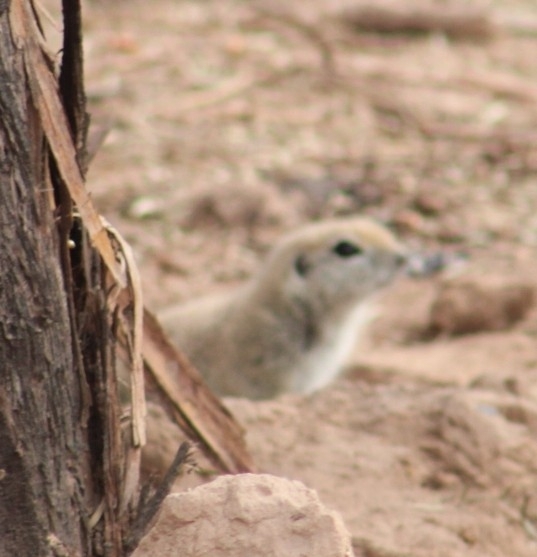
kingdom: Animalia
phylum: Chordata
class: Mammalia
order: Rodentia
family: Sciuridae
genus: Xerospermophilus
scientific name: Xerospermophilus tereticaudus
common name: Round-tailed ground squirrel
